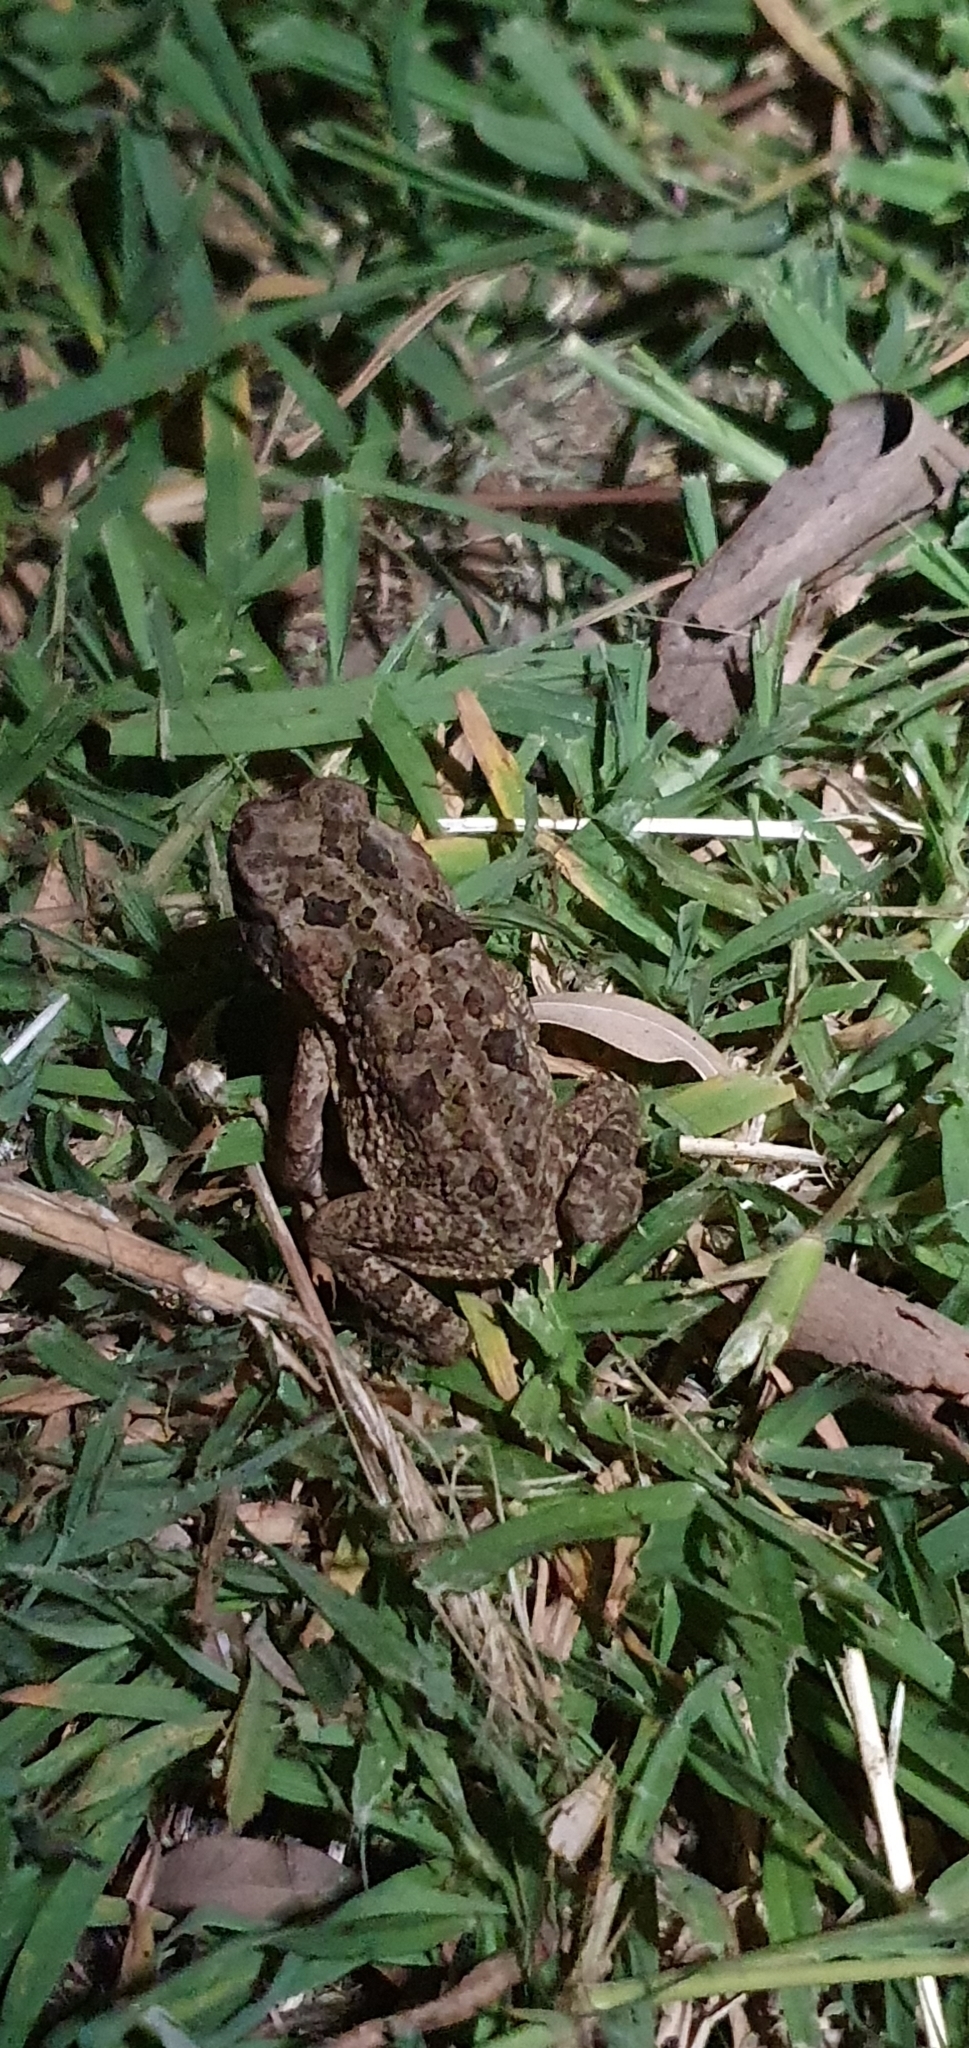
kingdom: Animalia
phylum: Chordata
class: Amphibia
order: Anura
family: Bufonidae
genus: Rhinella
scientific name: Rhinella marina
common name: Cane toad
